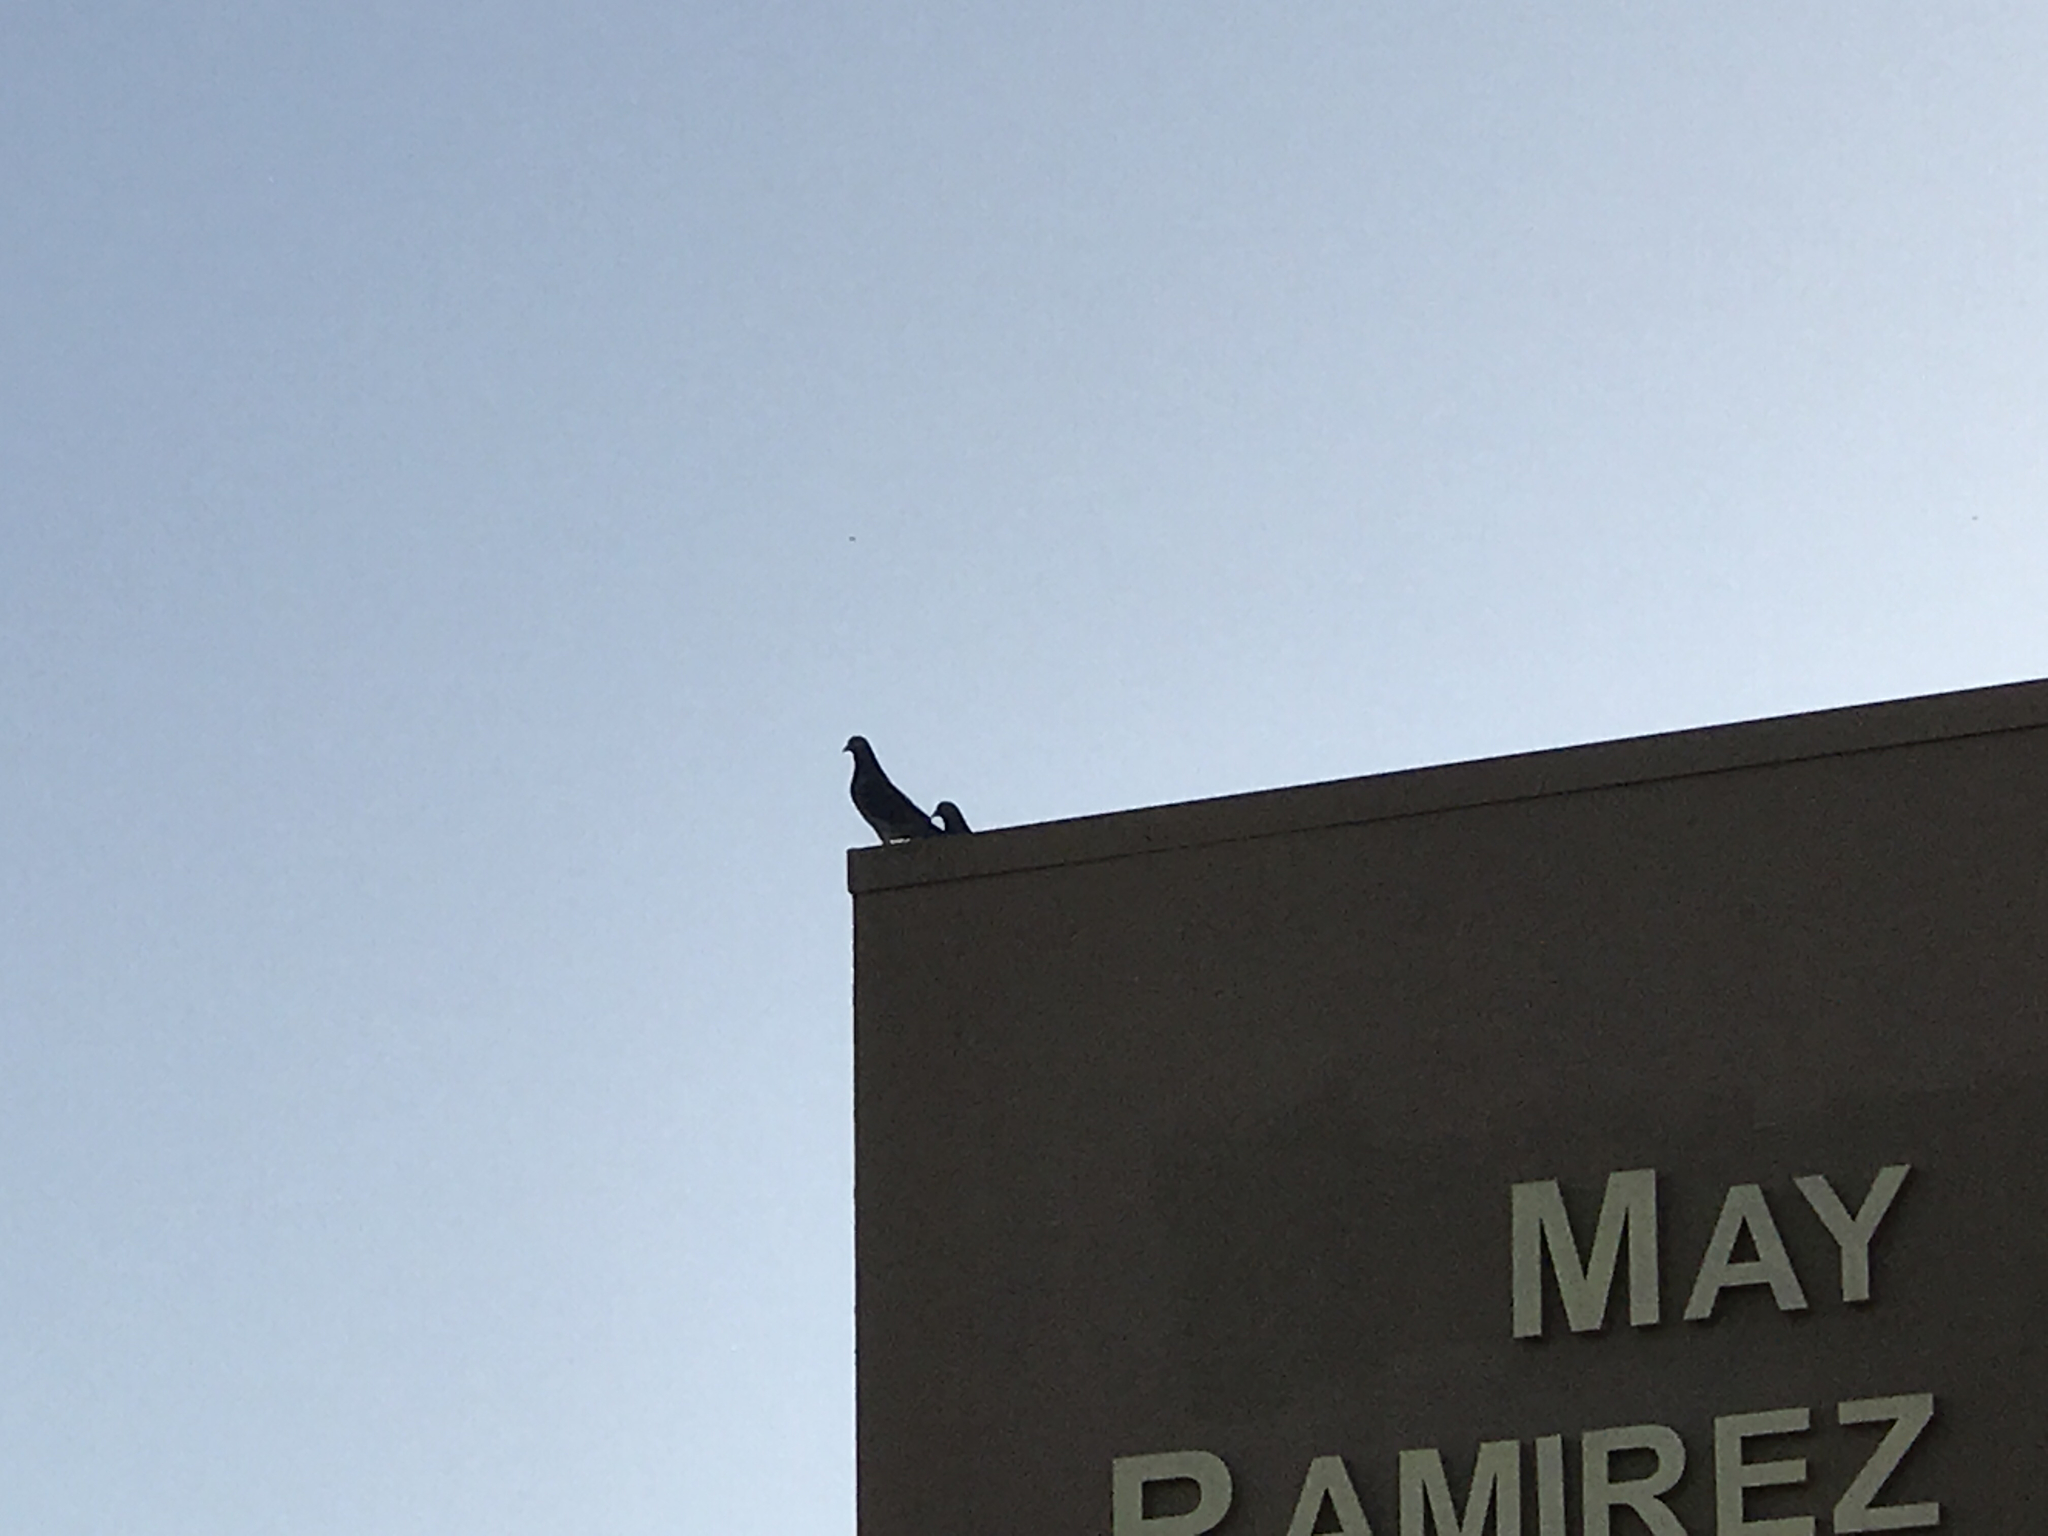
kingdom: Animalia
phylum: Chordata
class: Aves
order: Columbiformes
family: Columbidae
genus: Columba
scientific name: Columba livia
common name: Rock pigeon
